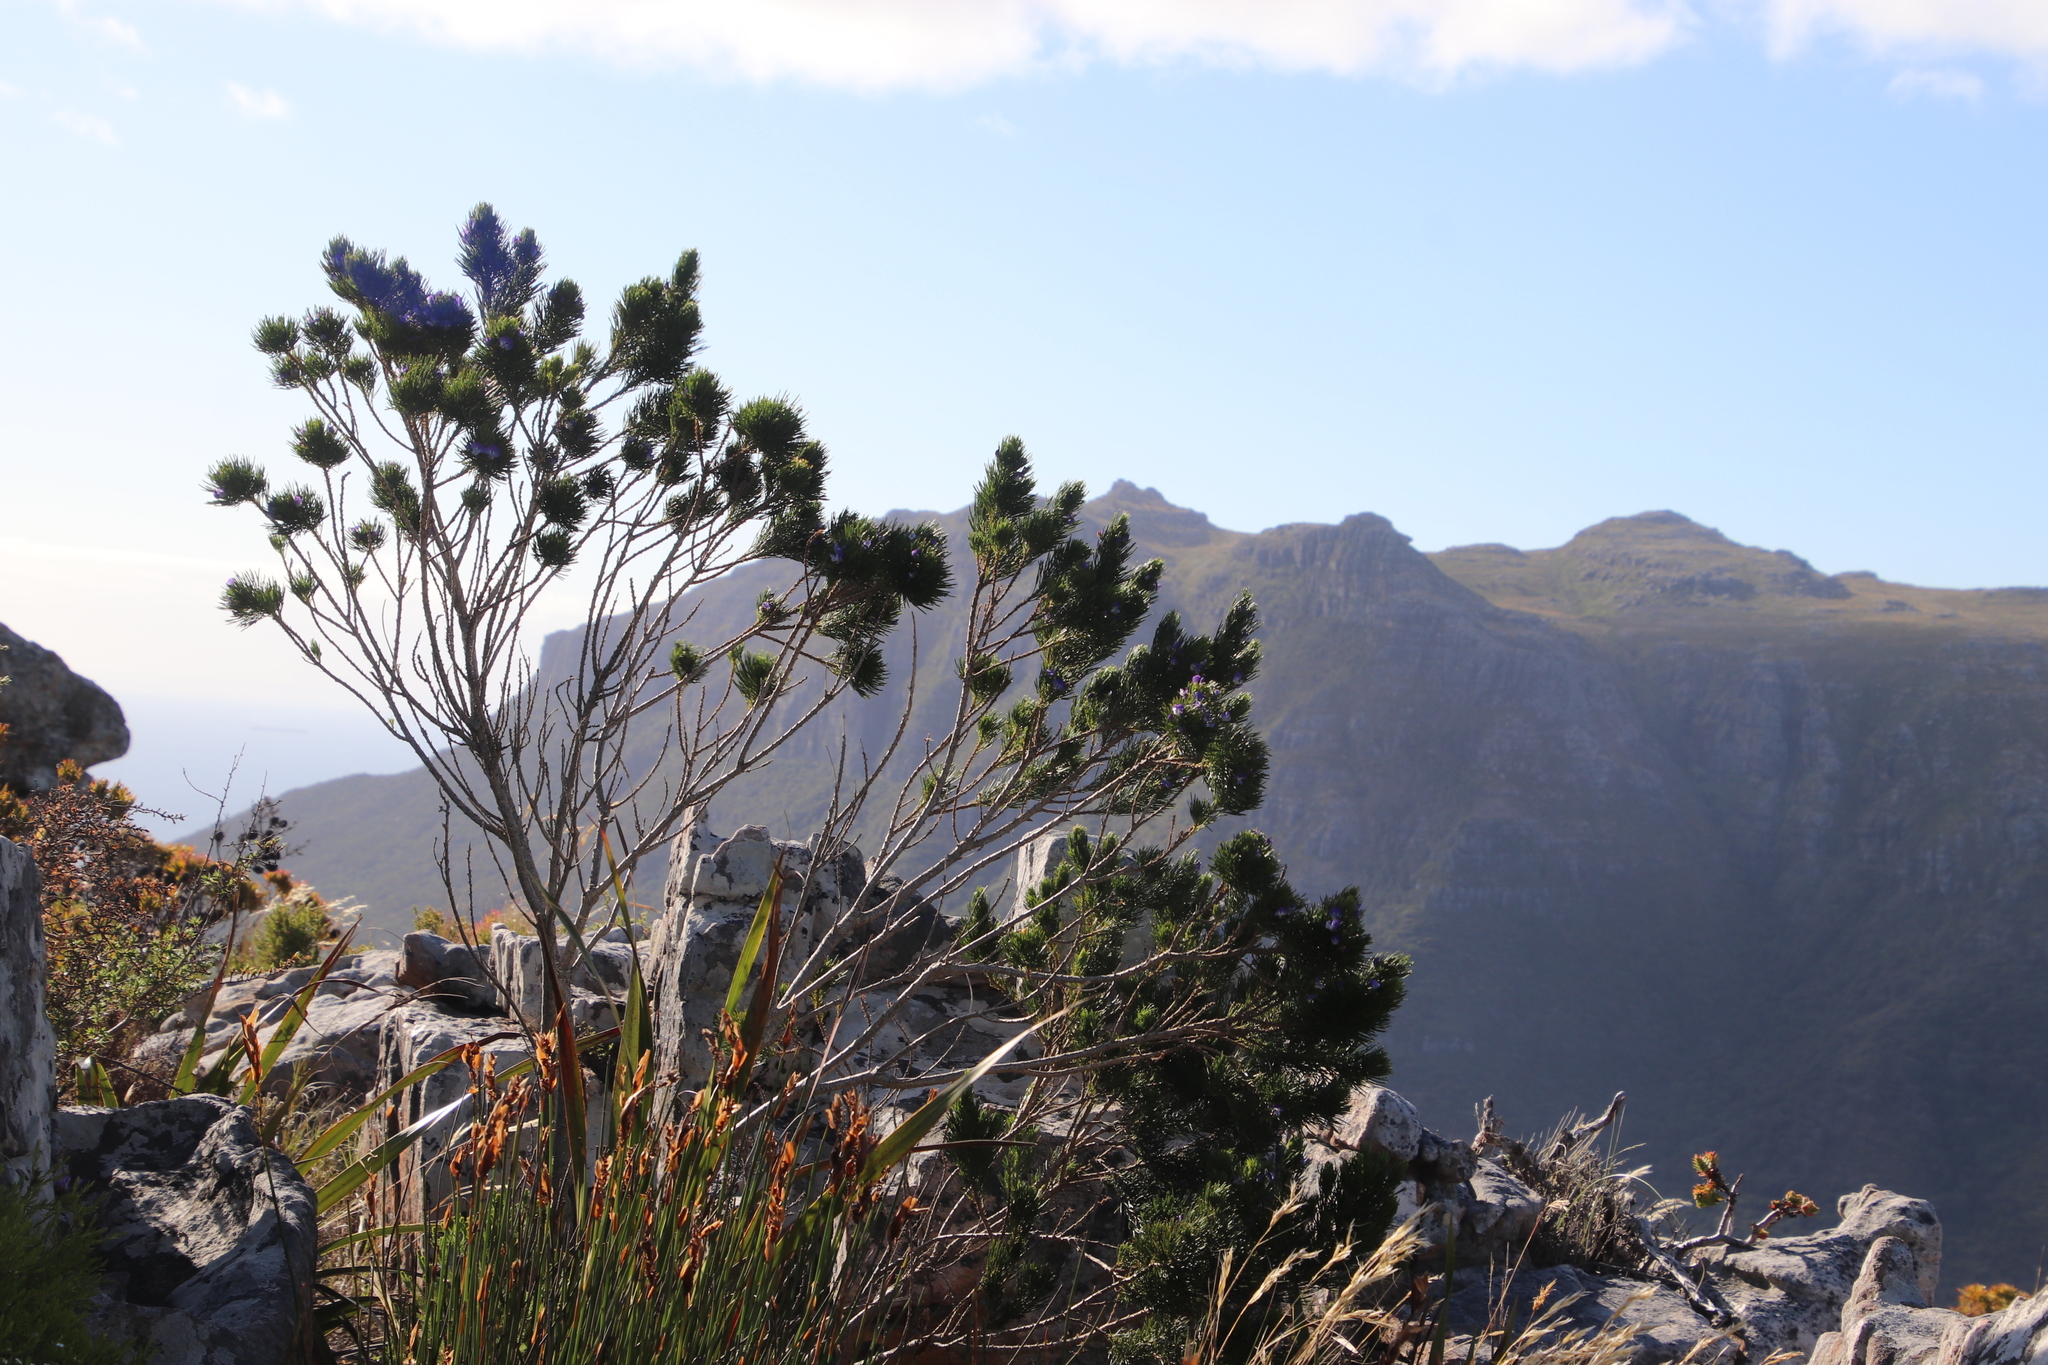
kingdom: Plantae
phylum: Tracheophyta
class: Magnoliopsida
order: Fabales
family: Fabaceae
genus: Psoralea
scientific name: Psoralea pinnata
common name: African scurfpea
